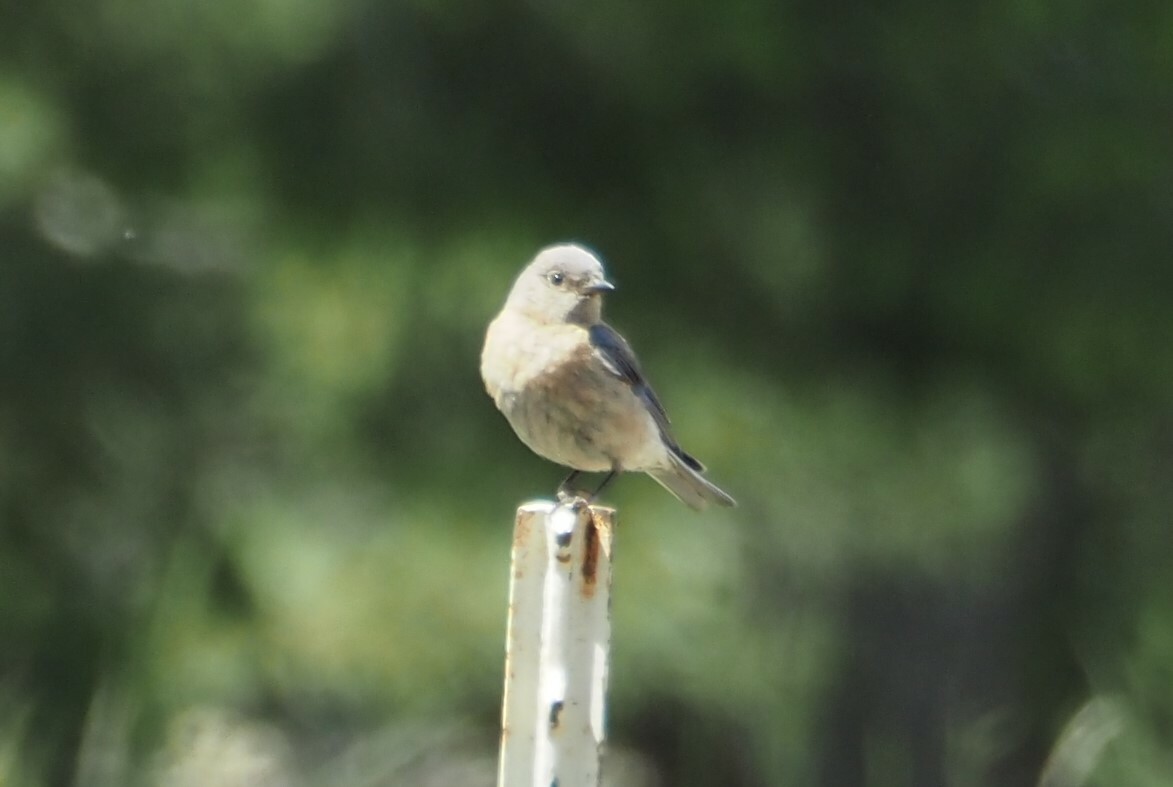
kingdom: Animalia
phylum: Chordata
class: Aves
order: Passeriformes
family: Turdidae
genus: Sialia
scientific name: Sialia mexicana
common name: Western bluebird
